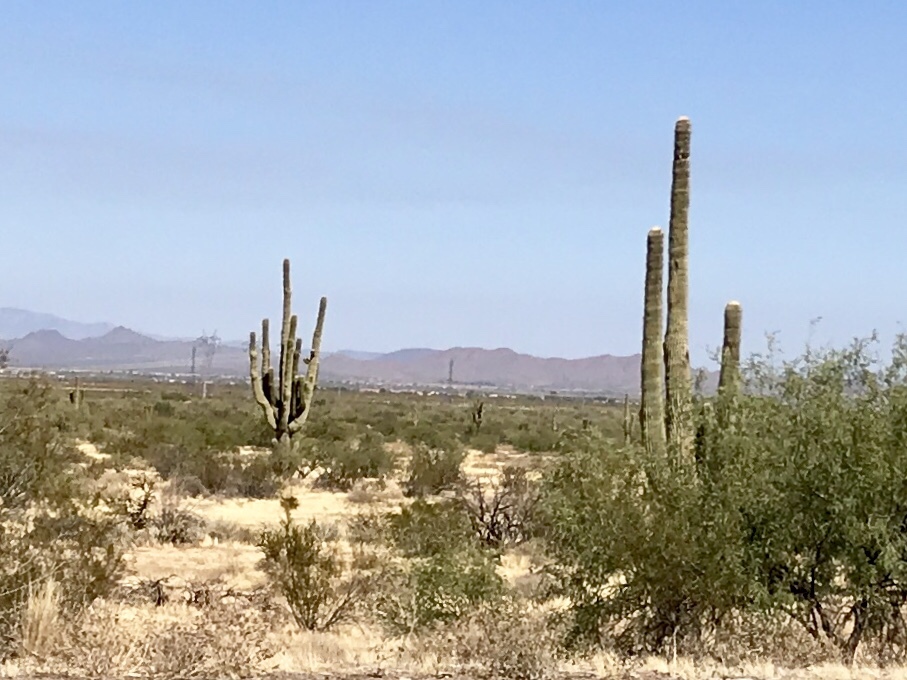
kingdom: Plantae
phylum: Tracheophyta
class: Magnoliopsida
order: Caryophyllales
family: Cactaceae
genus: Carnegiea
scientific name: Carnegiea gigantea
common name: Saguaro
